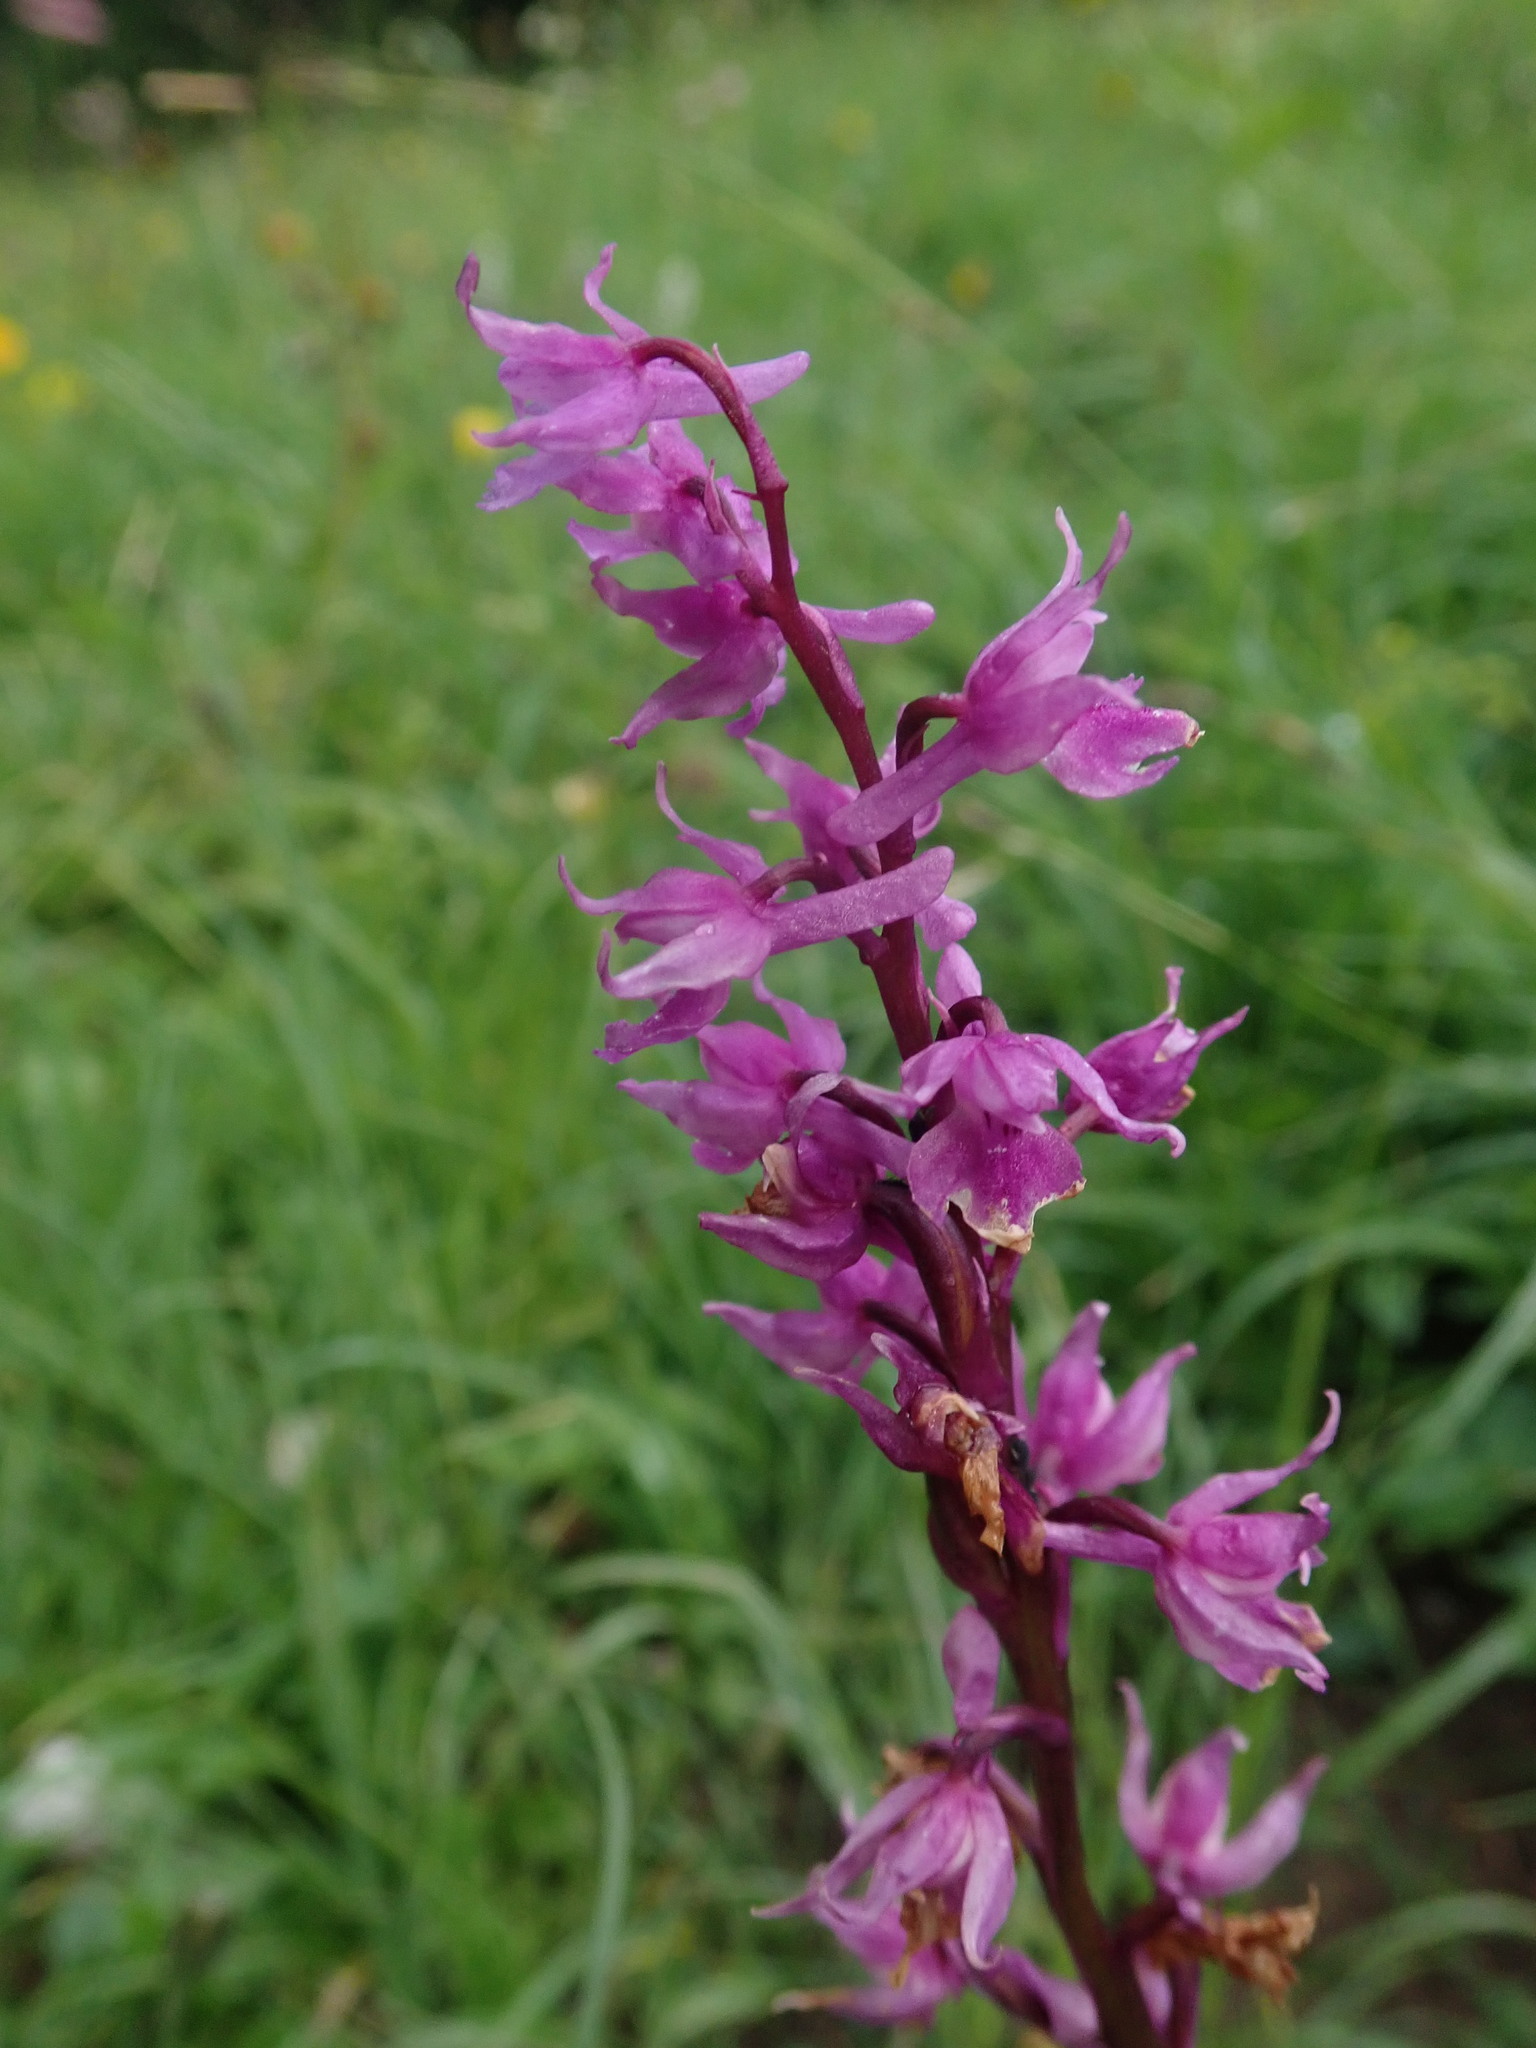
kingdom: Plantae
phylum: Tracheophyta
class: Liliopsida
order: Asparagales
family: Orchidaceae
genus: Orchis
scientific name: Orchis mascula
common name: Early-purple orchid
